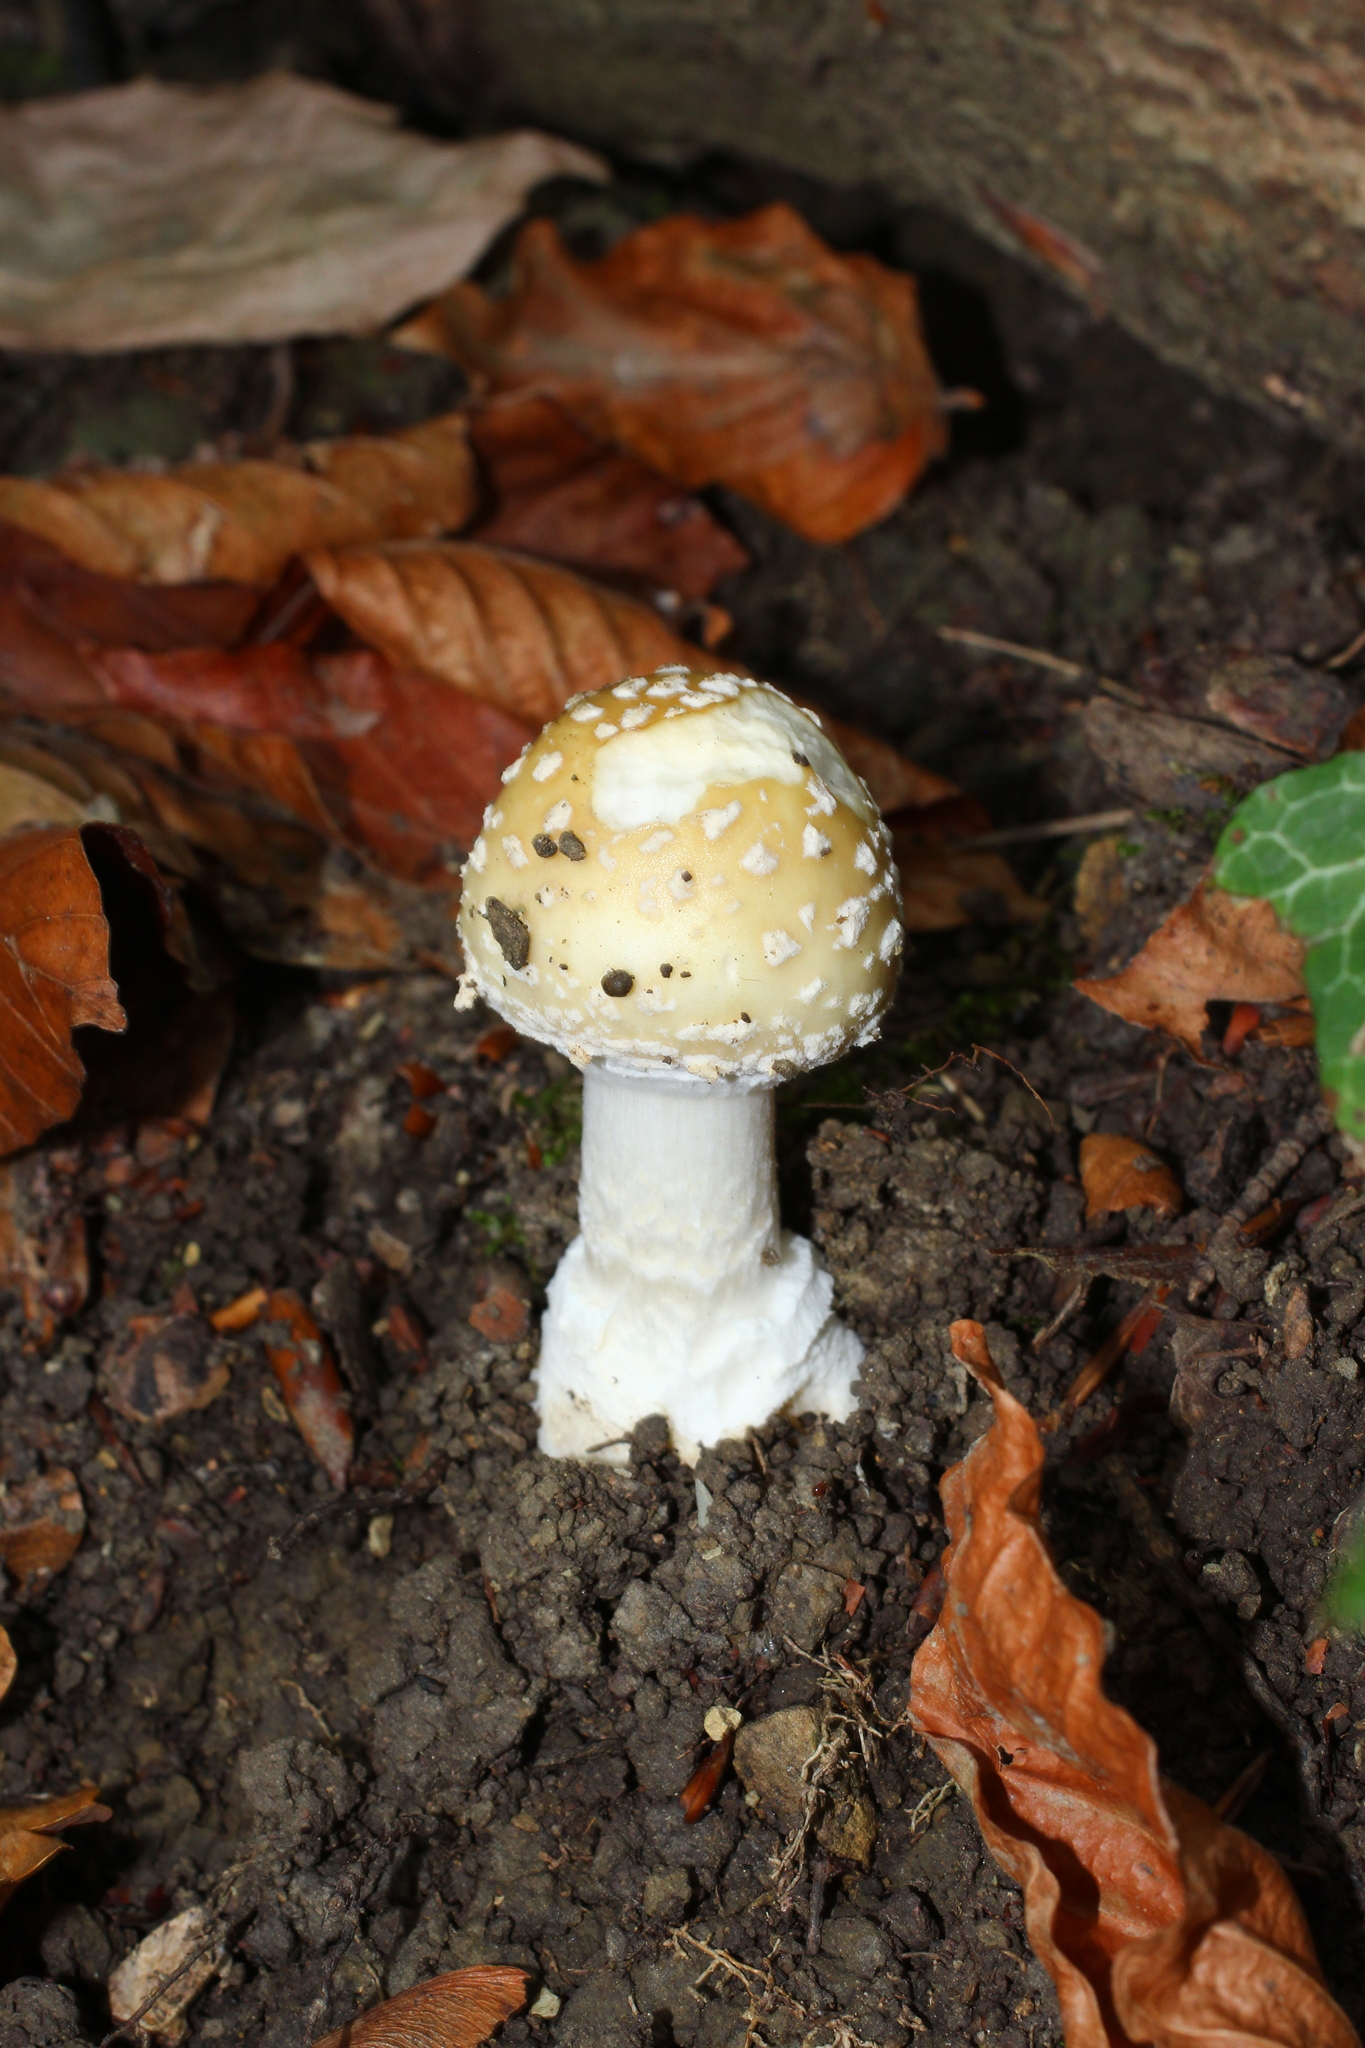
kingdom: Fungi
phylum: Basidiomycota
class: Agaricomycetes
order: Agaricales
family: Amanitaceae
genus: Amanita
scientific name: Amanita pantherina
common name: Panthercap
